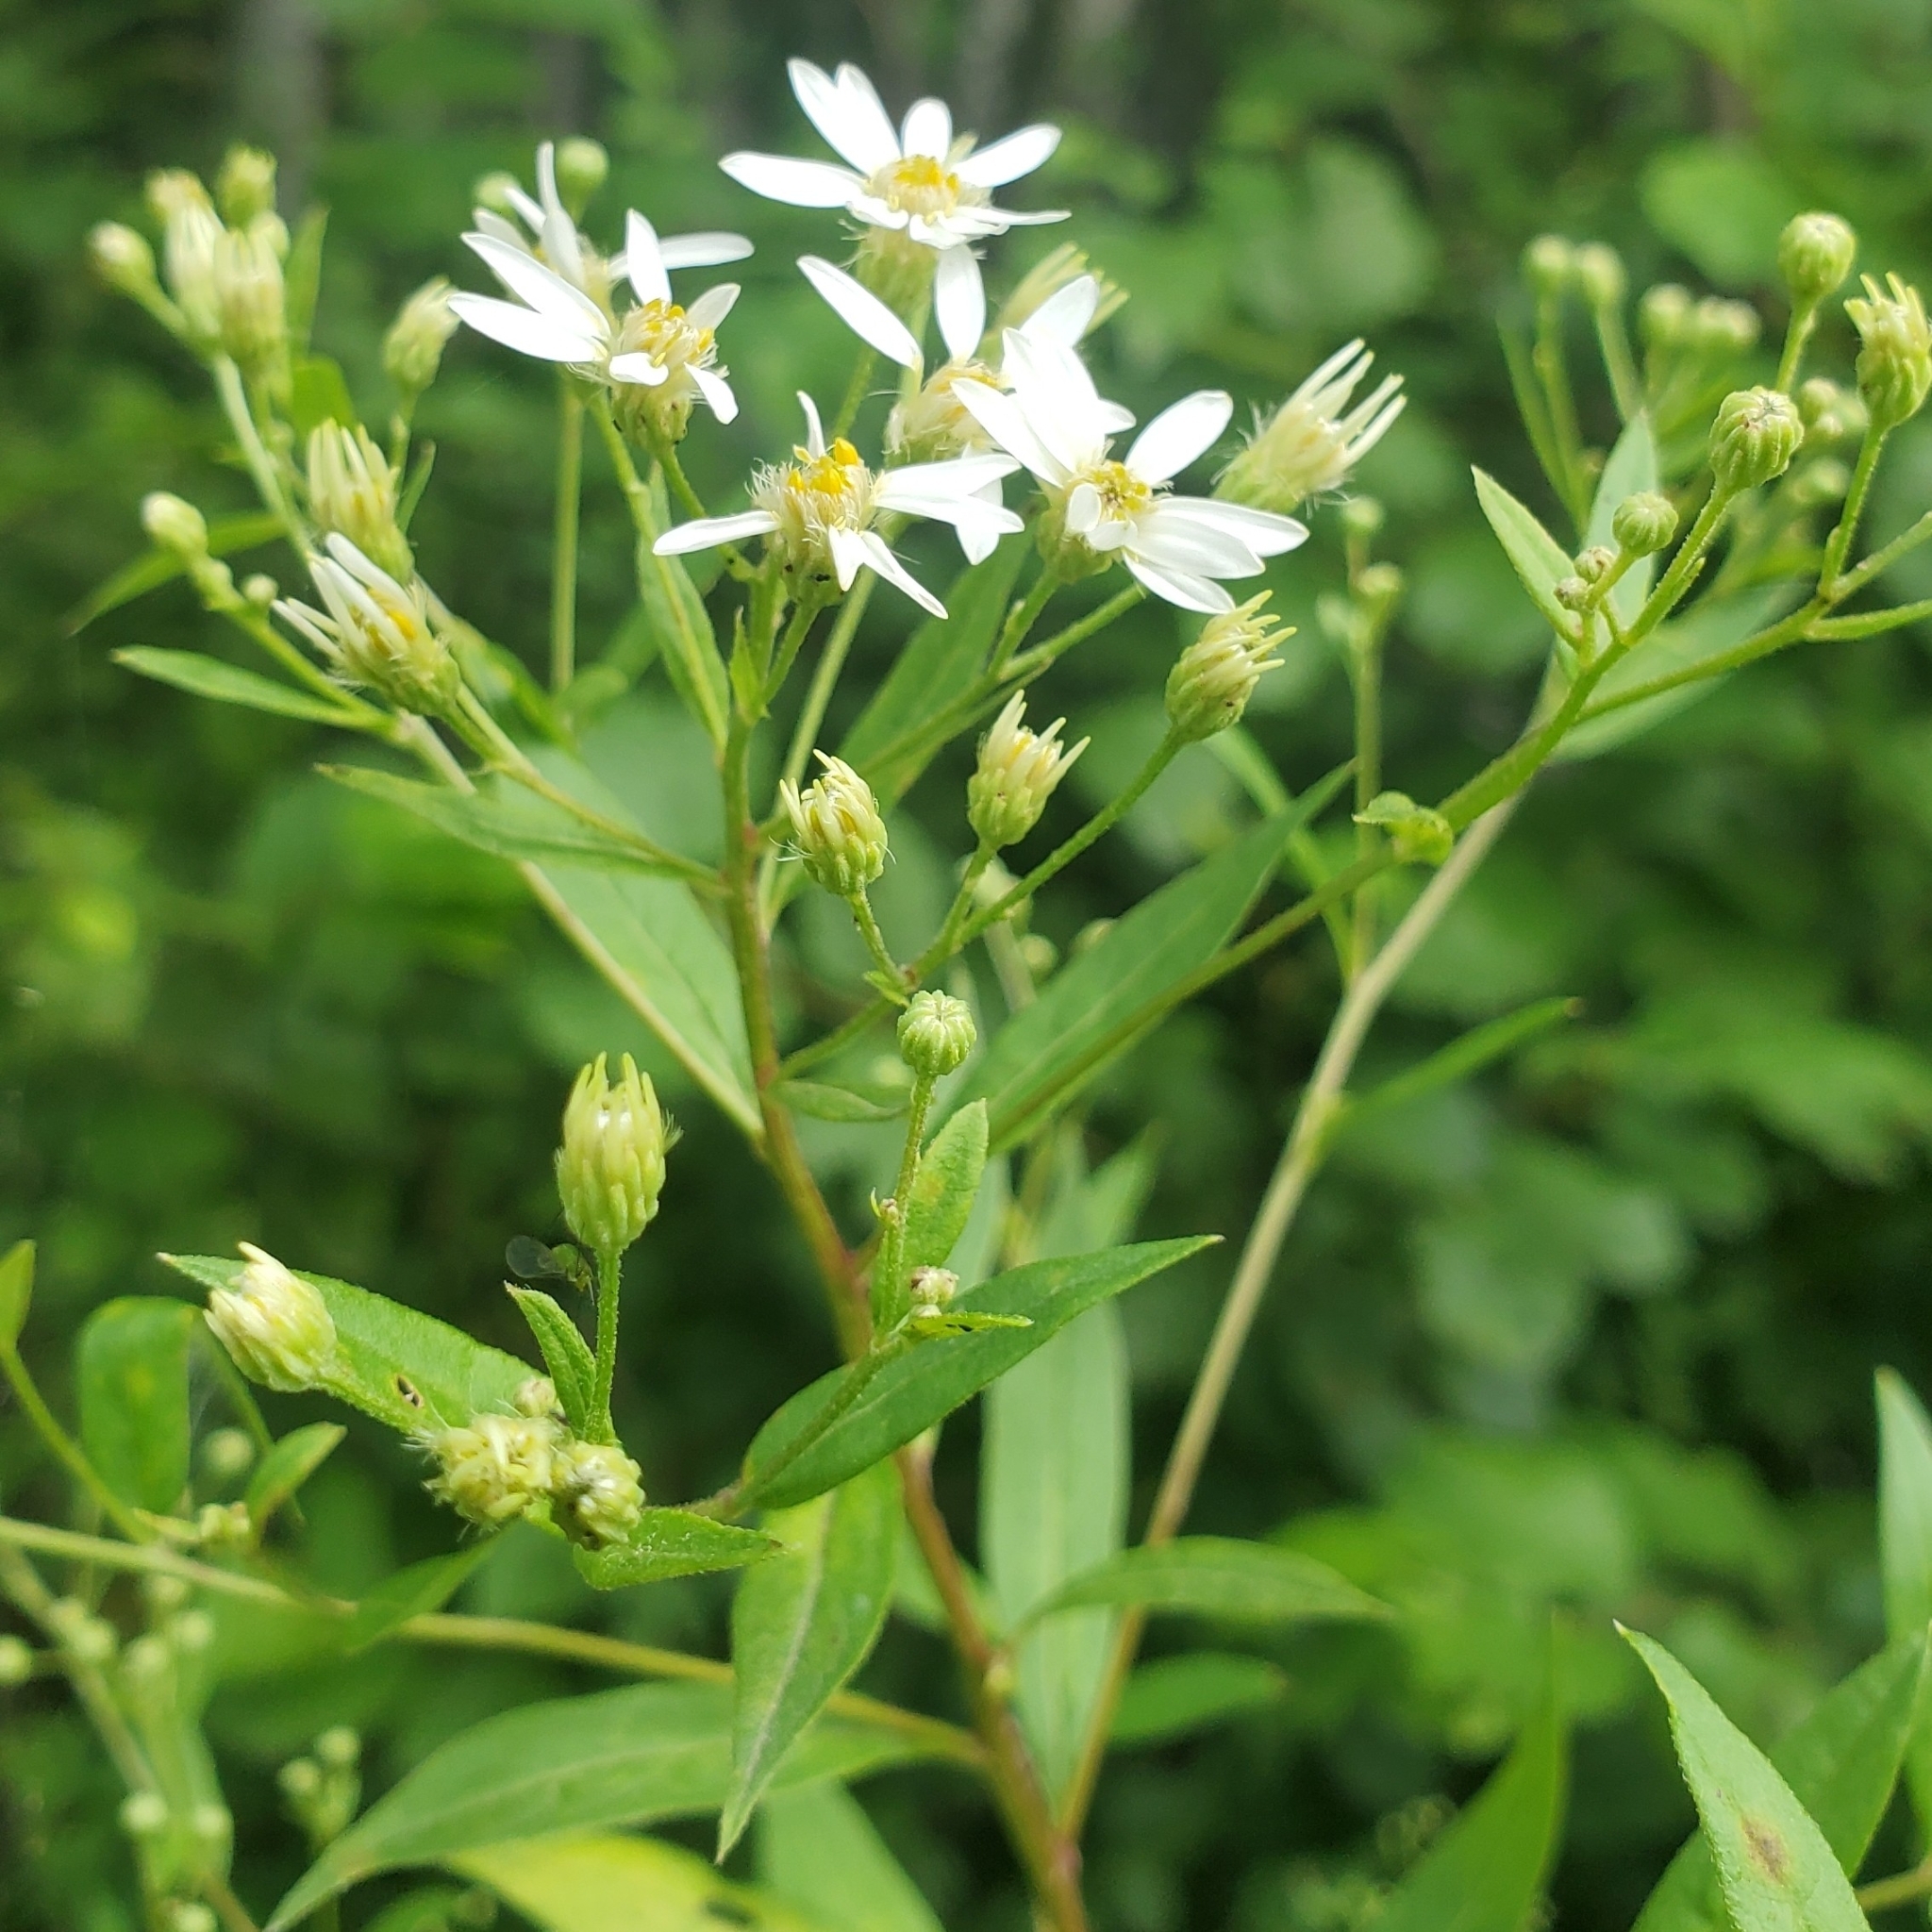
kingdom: Plantae
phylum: Tracheophyta
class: Magnoliopsida
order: Asterales
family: Asteraceae
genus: Doellingeria
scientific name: Doellingeria umbellata
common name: Flat-top white aster
